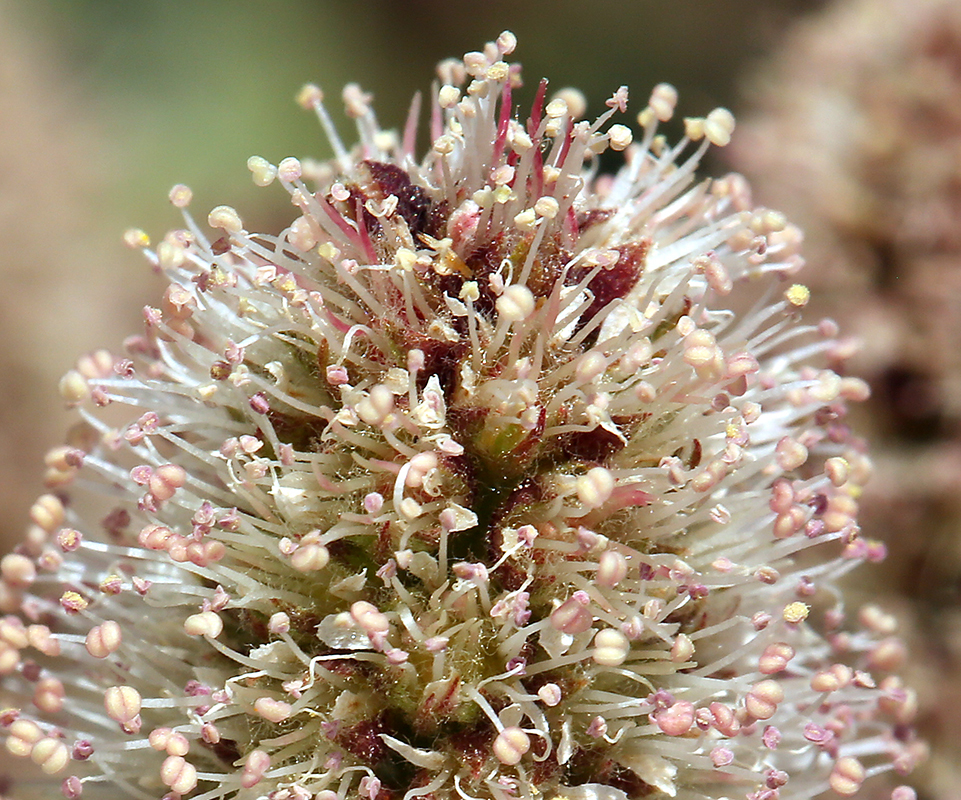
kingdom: Plantae
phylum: Tracheophyta
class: Magnoliopsida
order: Rosales
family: Rosaceae
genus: Petrophytum
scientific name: Petrophytum caespitosum
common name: Mat rockspirea
